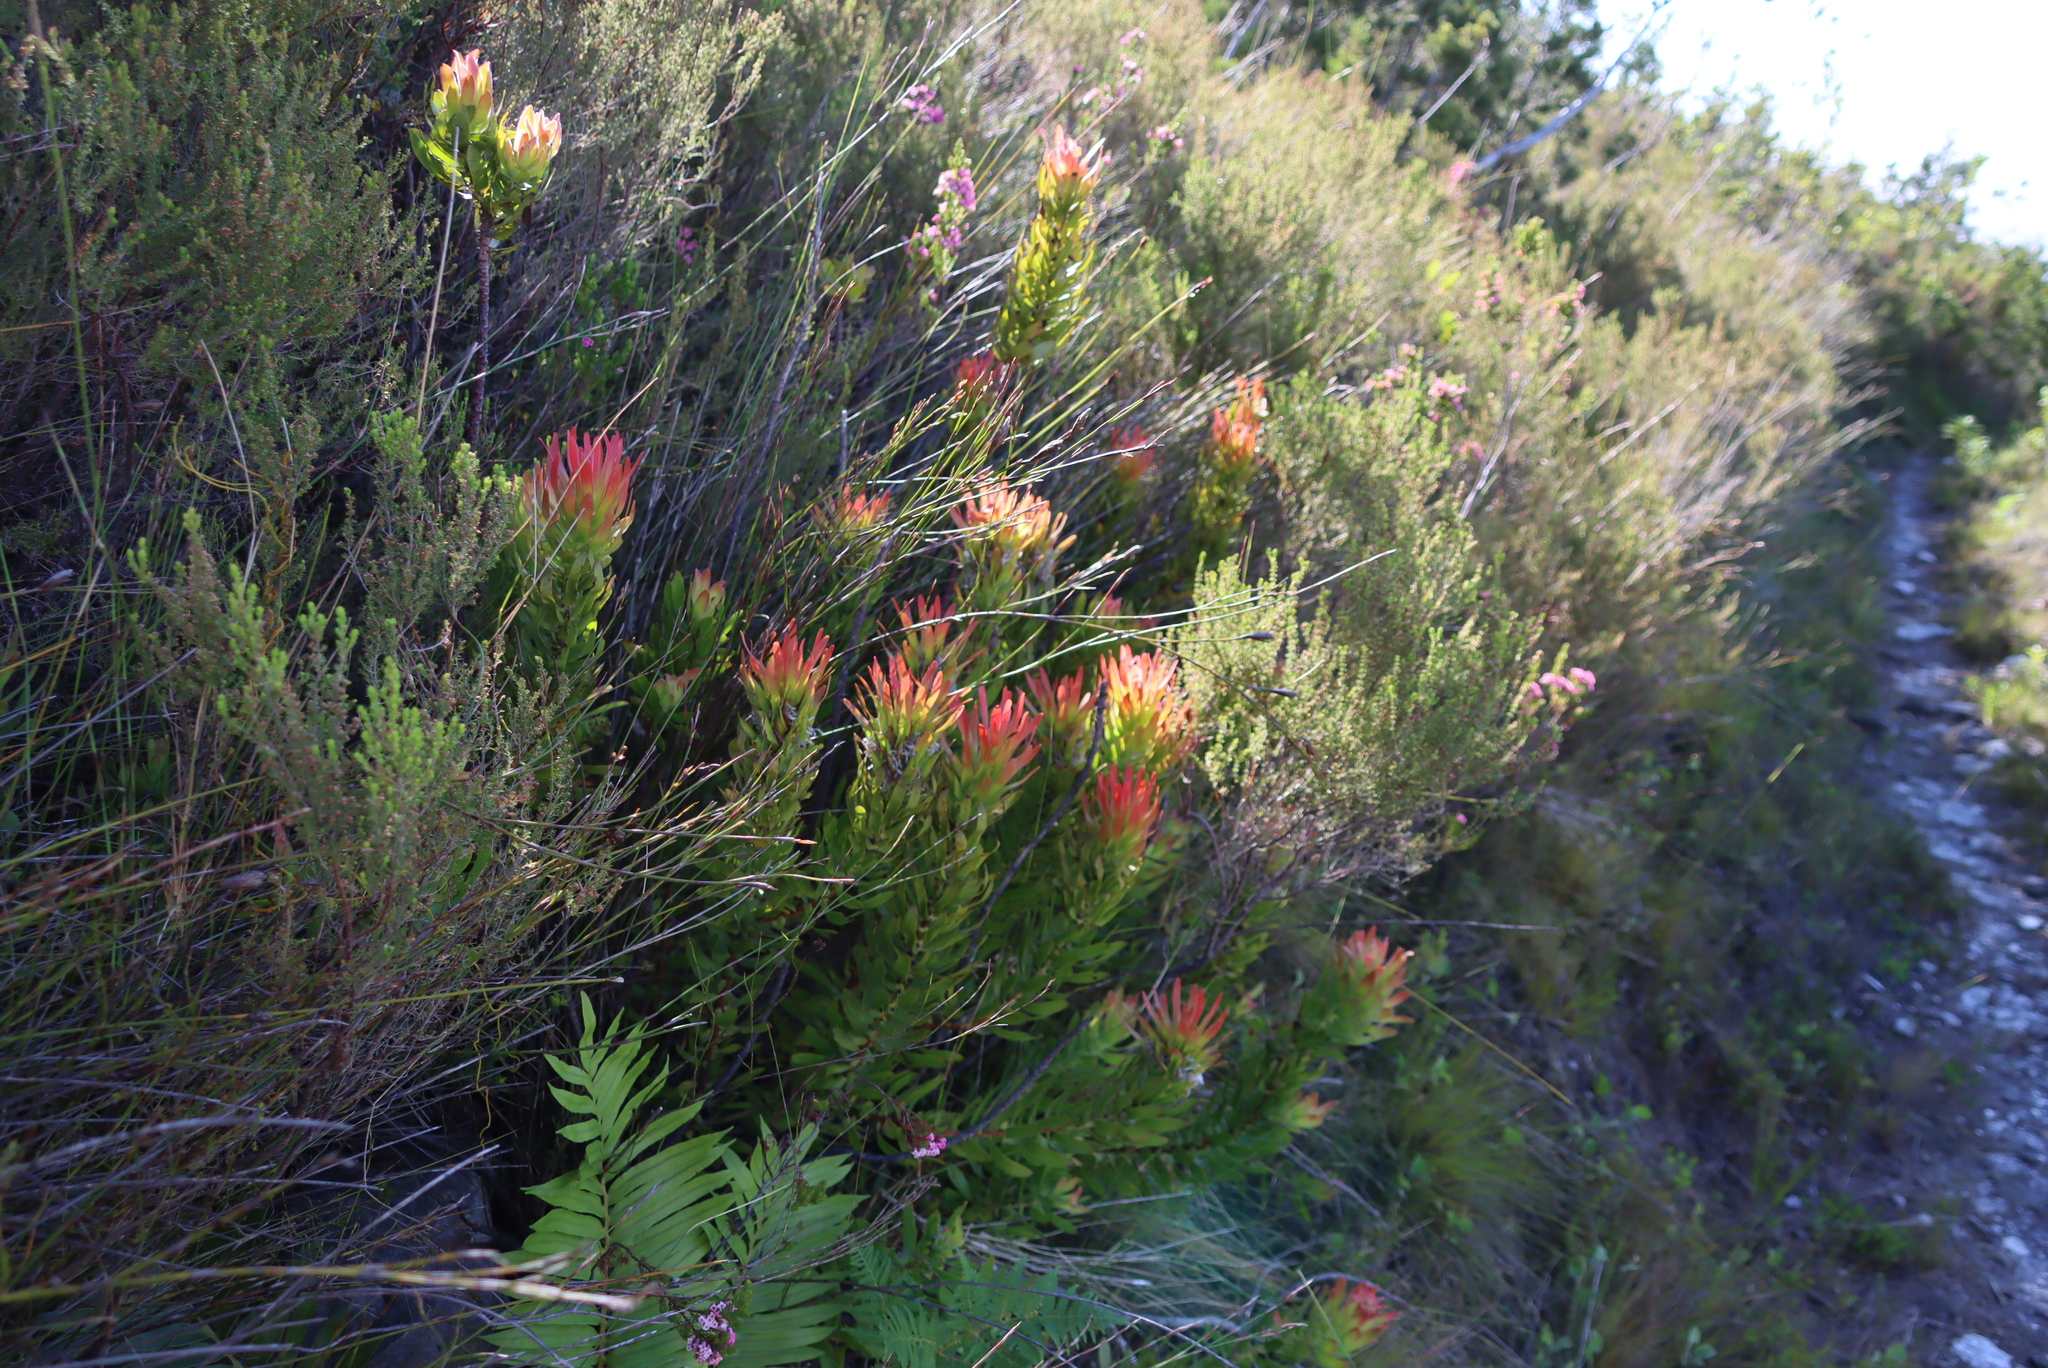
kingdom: Plantae
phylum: Tracheophyta
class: Magnoliopsida
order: Proteales
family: Proteaceae
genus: Mimetes
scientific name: Mimetes cucullatus
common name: Common pagoda
